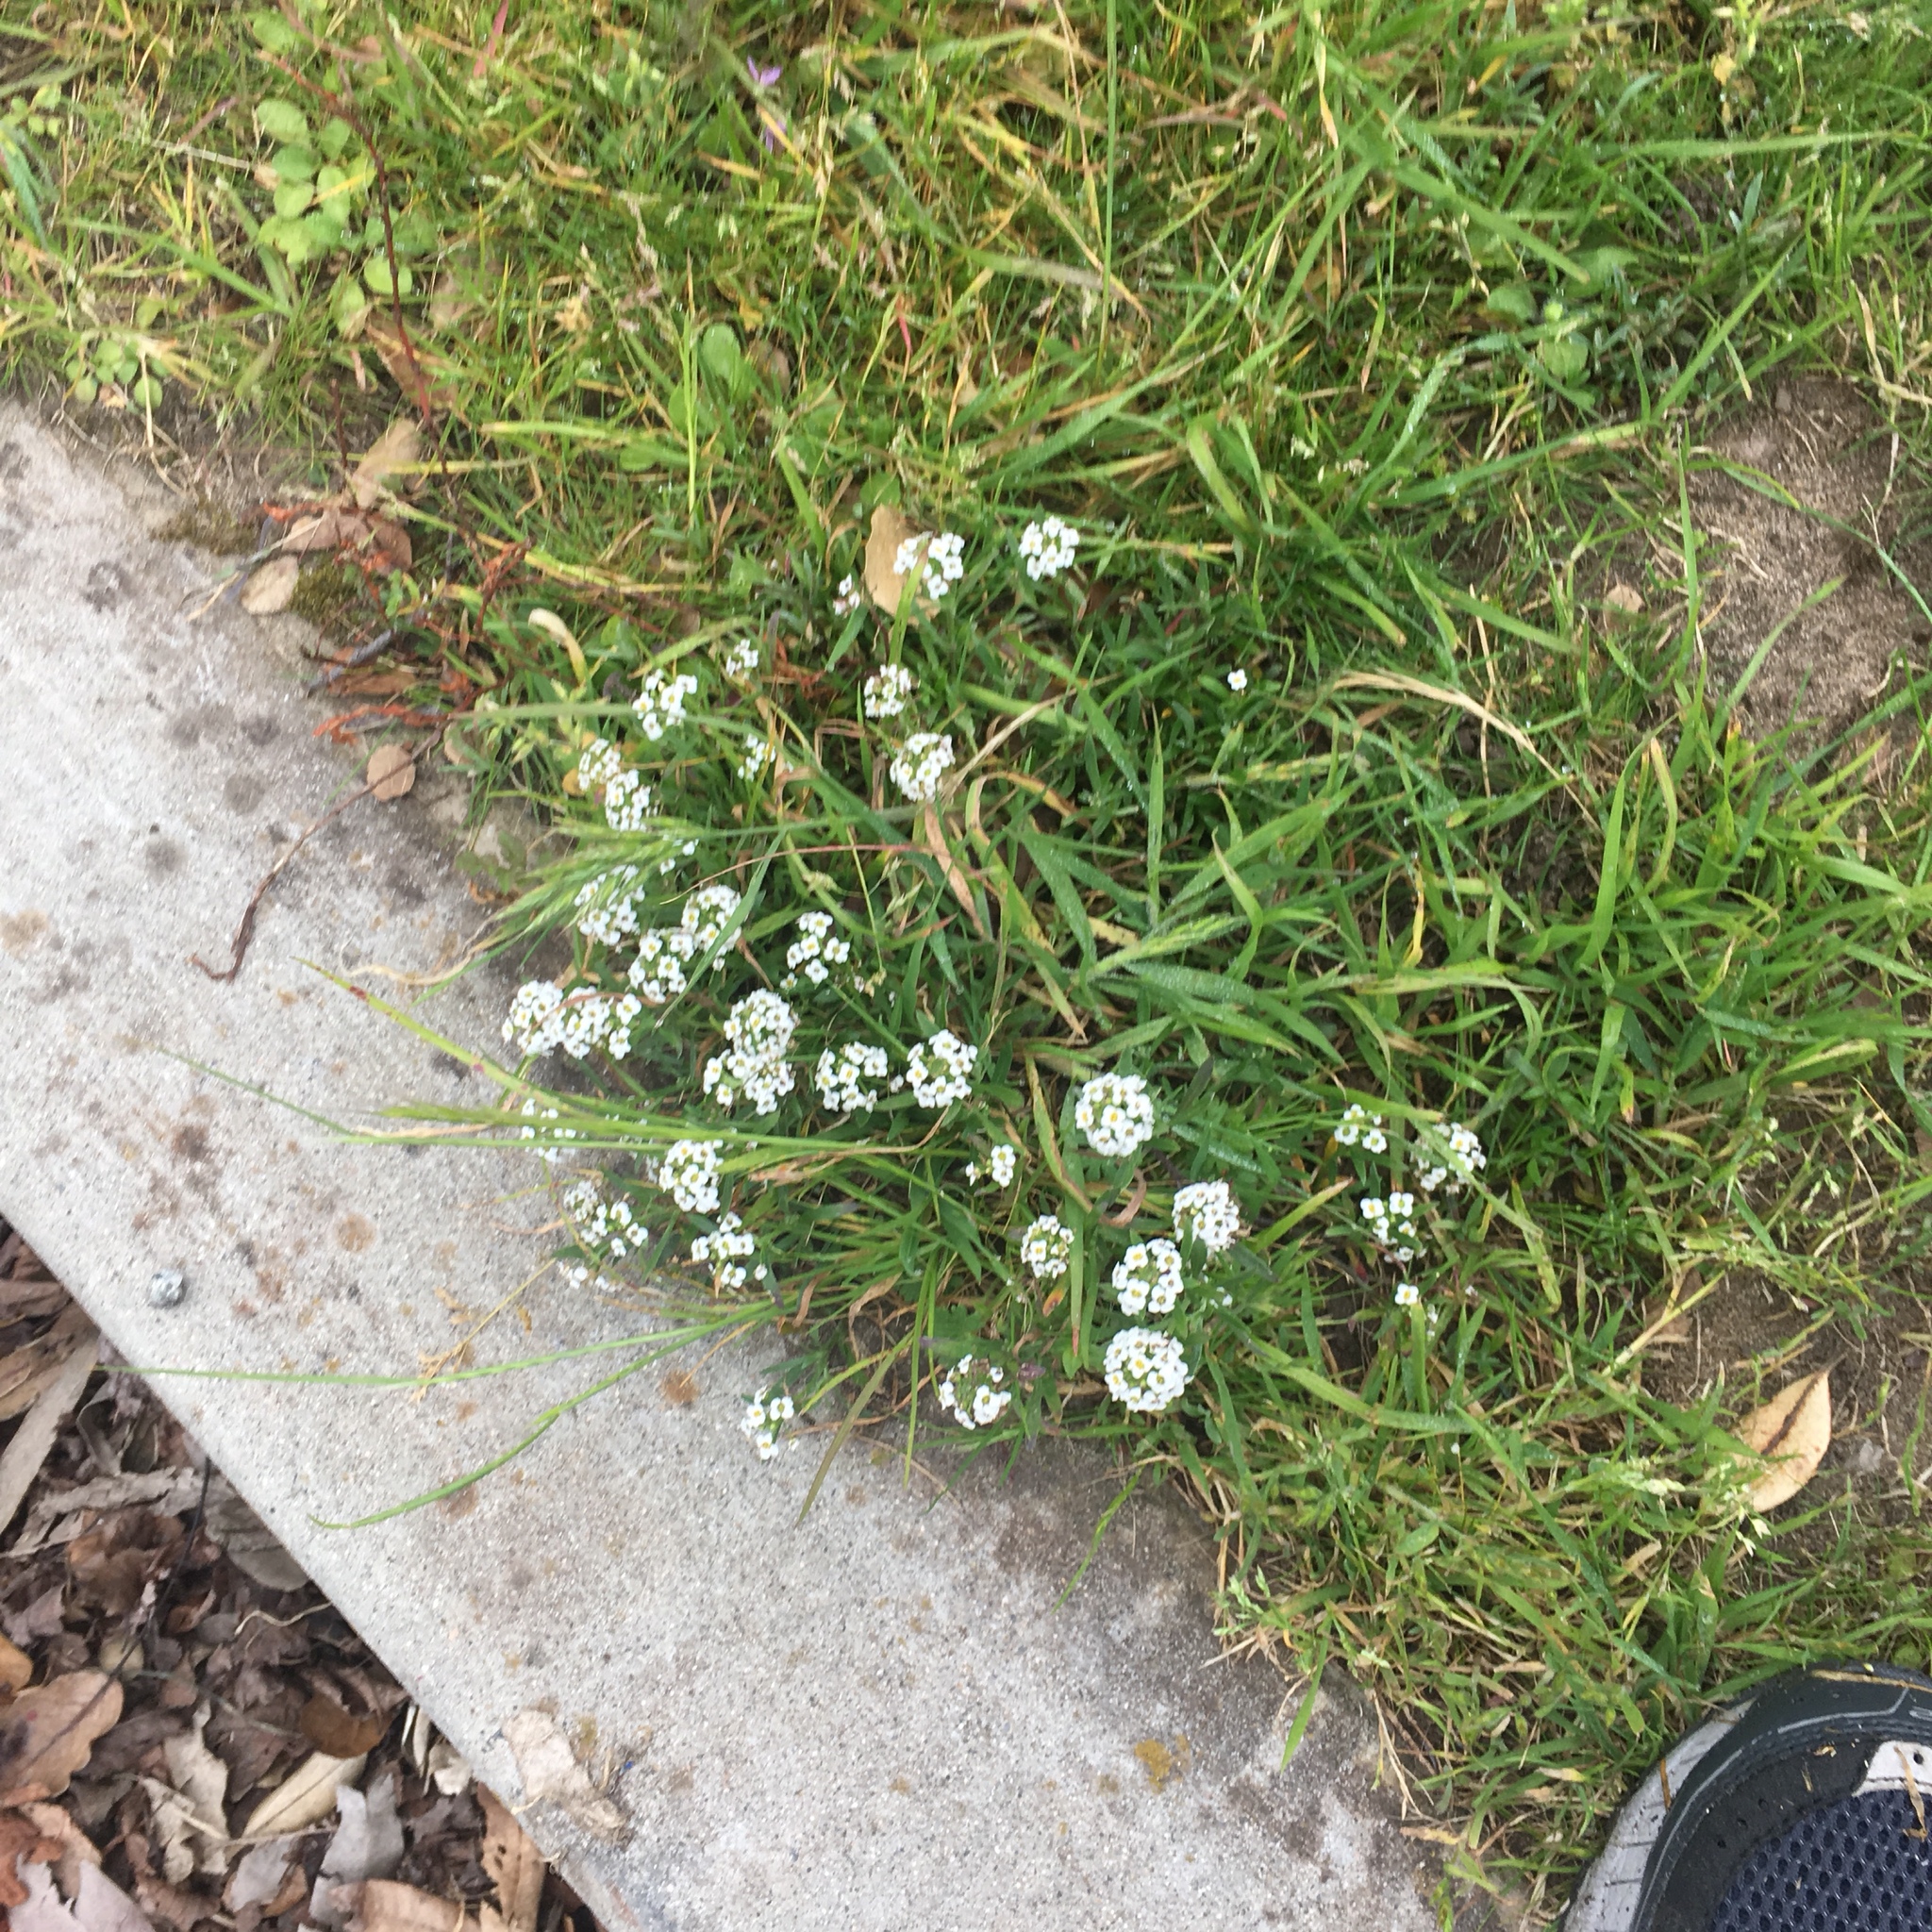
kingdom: Plantae
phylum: Tracheophyta
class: Magnoliopsida
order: Brassicales
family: Brassicaceae
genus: Lobularia
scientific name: Lobularia maritima
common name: Sweet alison
